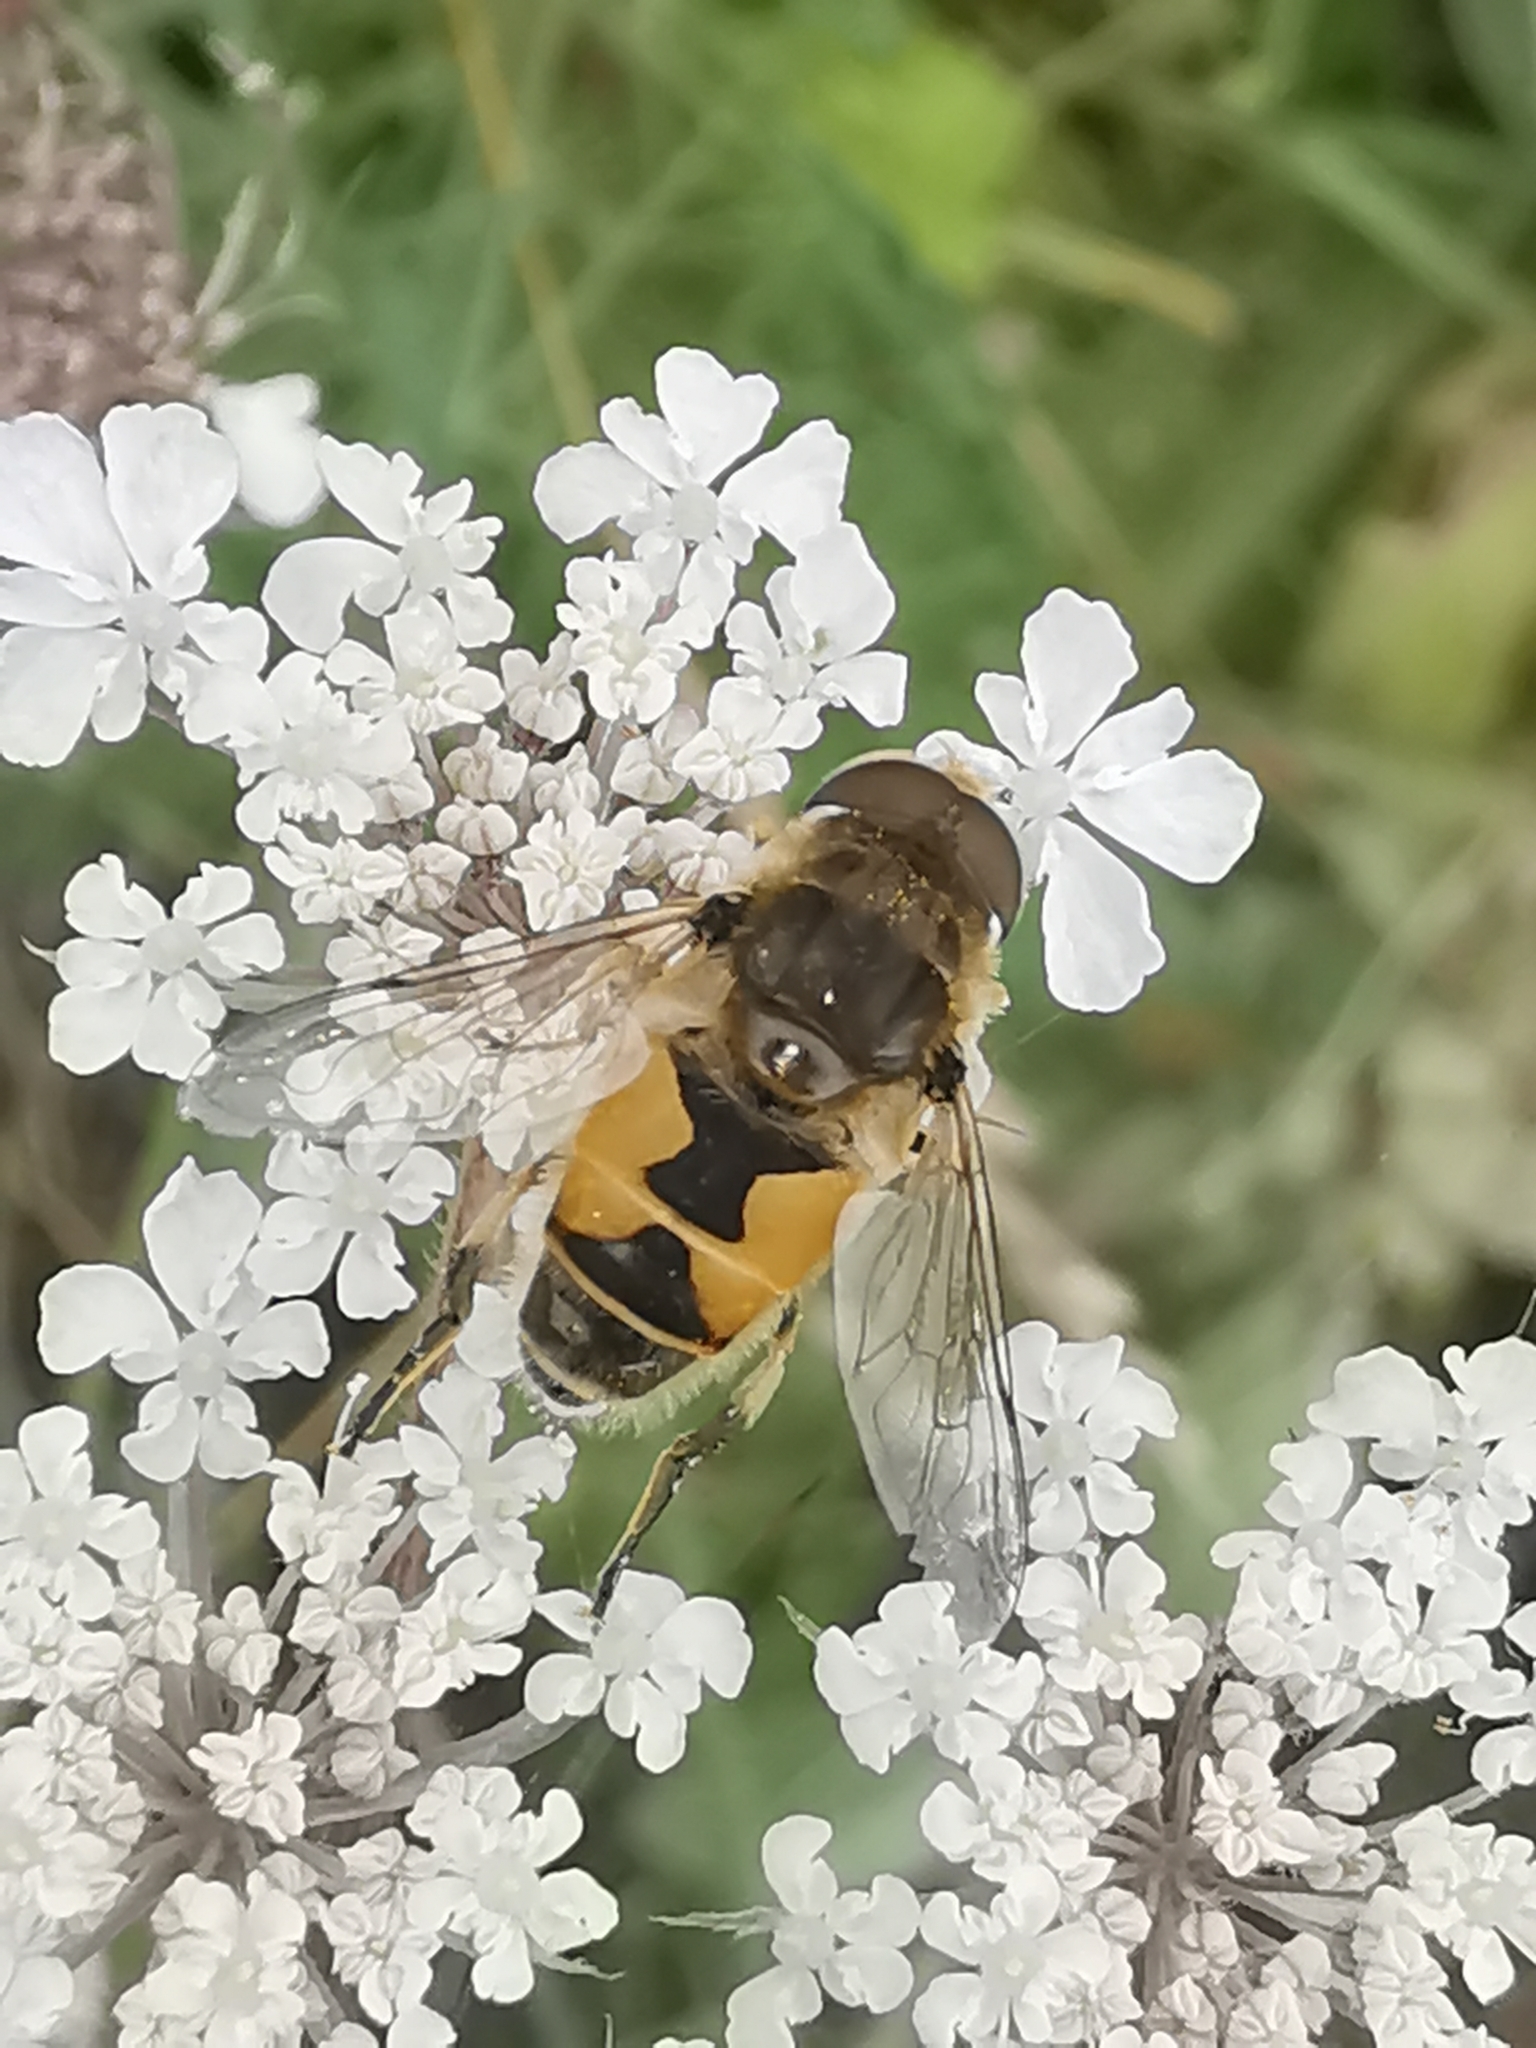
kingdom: Animalia
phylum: Arthropoda
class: Insecta
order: Diptera
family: Syrphidae
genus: Eristalis
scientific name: Eristalis arbustorum
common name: Hover fly
